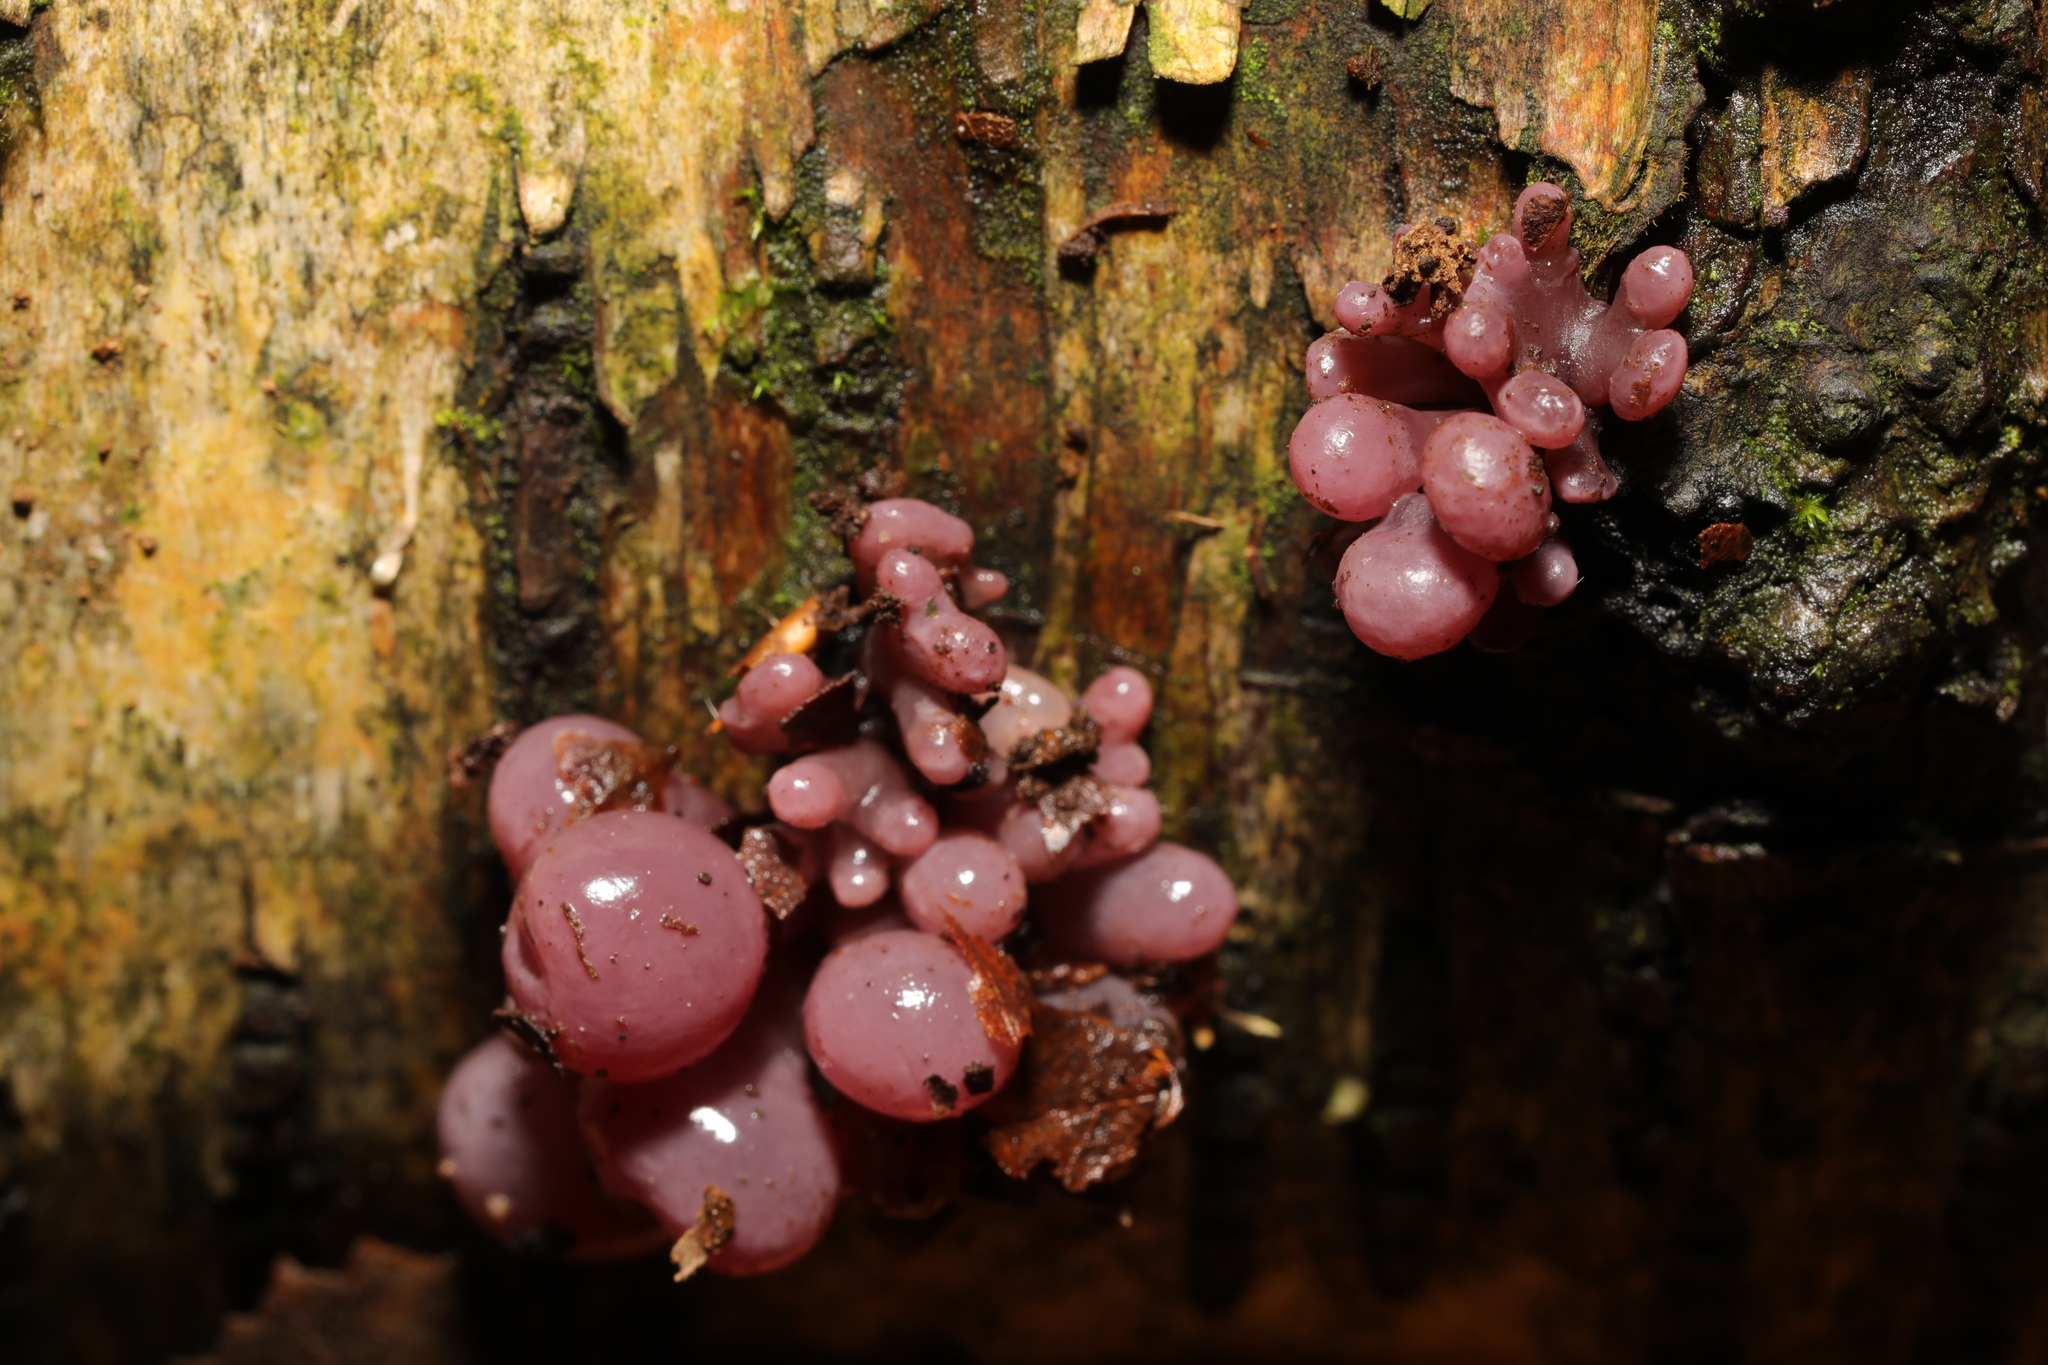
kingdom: Fungi
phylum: Ascomycota
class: Leotiomycetes
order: Helotiales
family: Gelatinodiscaceae
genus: Ascocoryne
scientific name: Ascocoryne sarcoides
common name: Purple jellydisc
